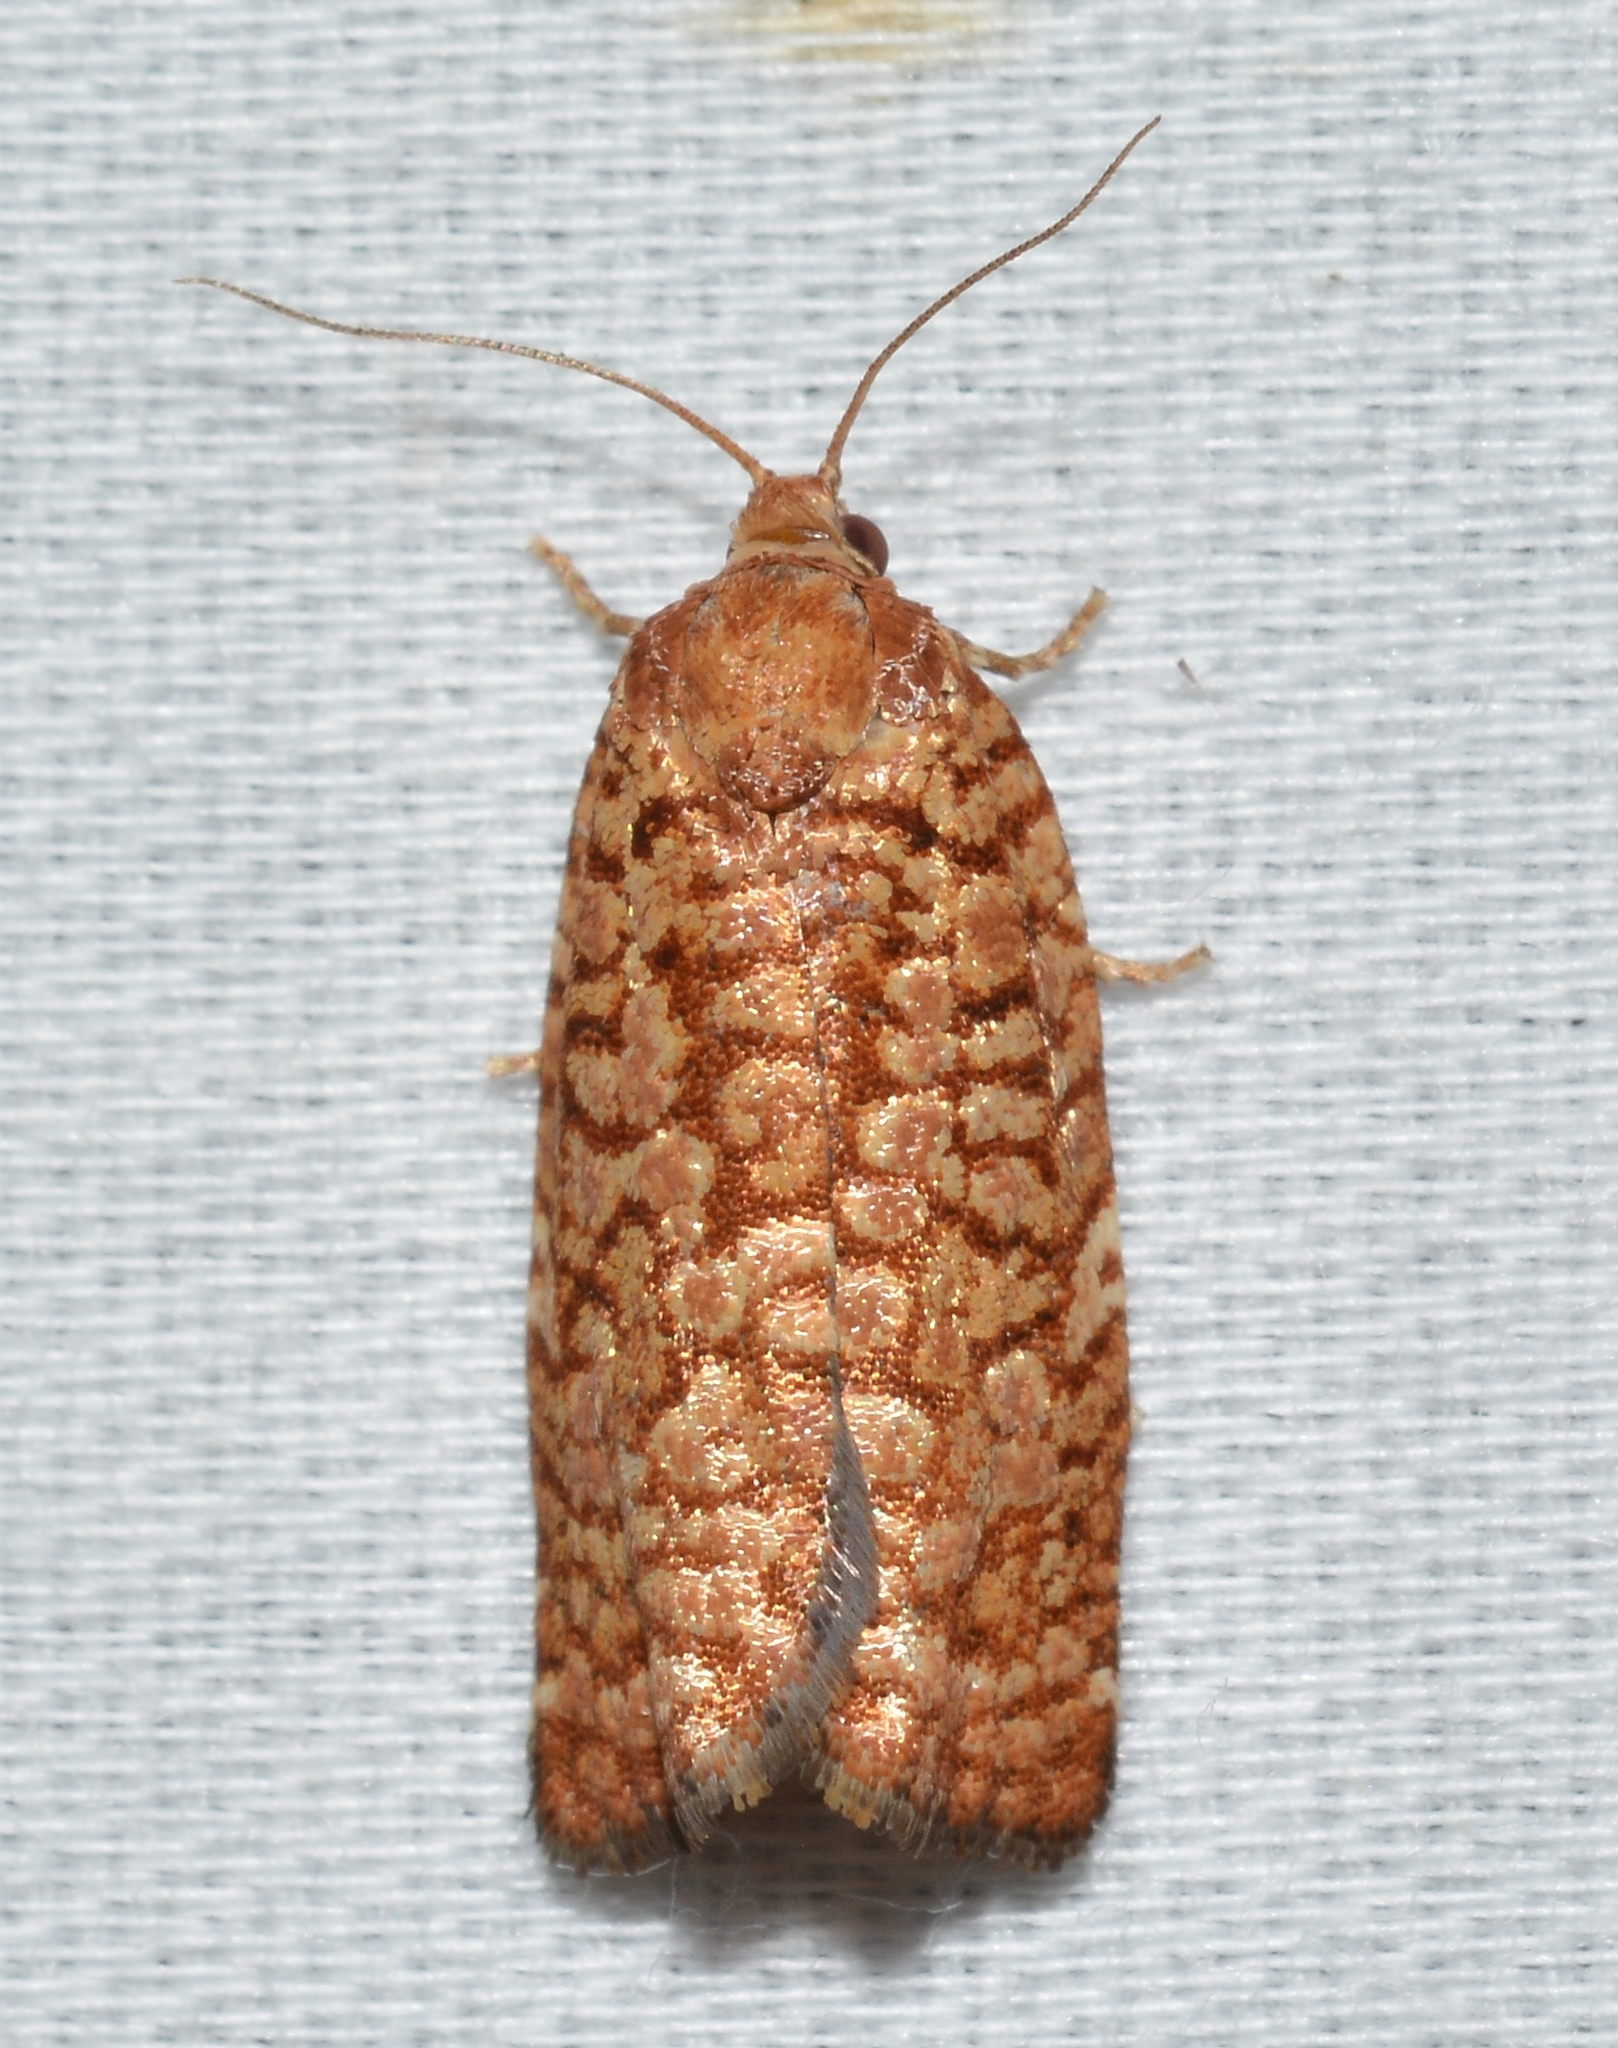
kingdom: Animalia
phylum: Arthropoda
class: Insecta
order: Lepidoptera
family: Tortricidae
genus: Choristoneura
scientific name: Choristoneura pinus
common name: Jack pine budworm
